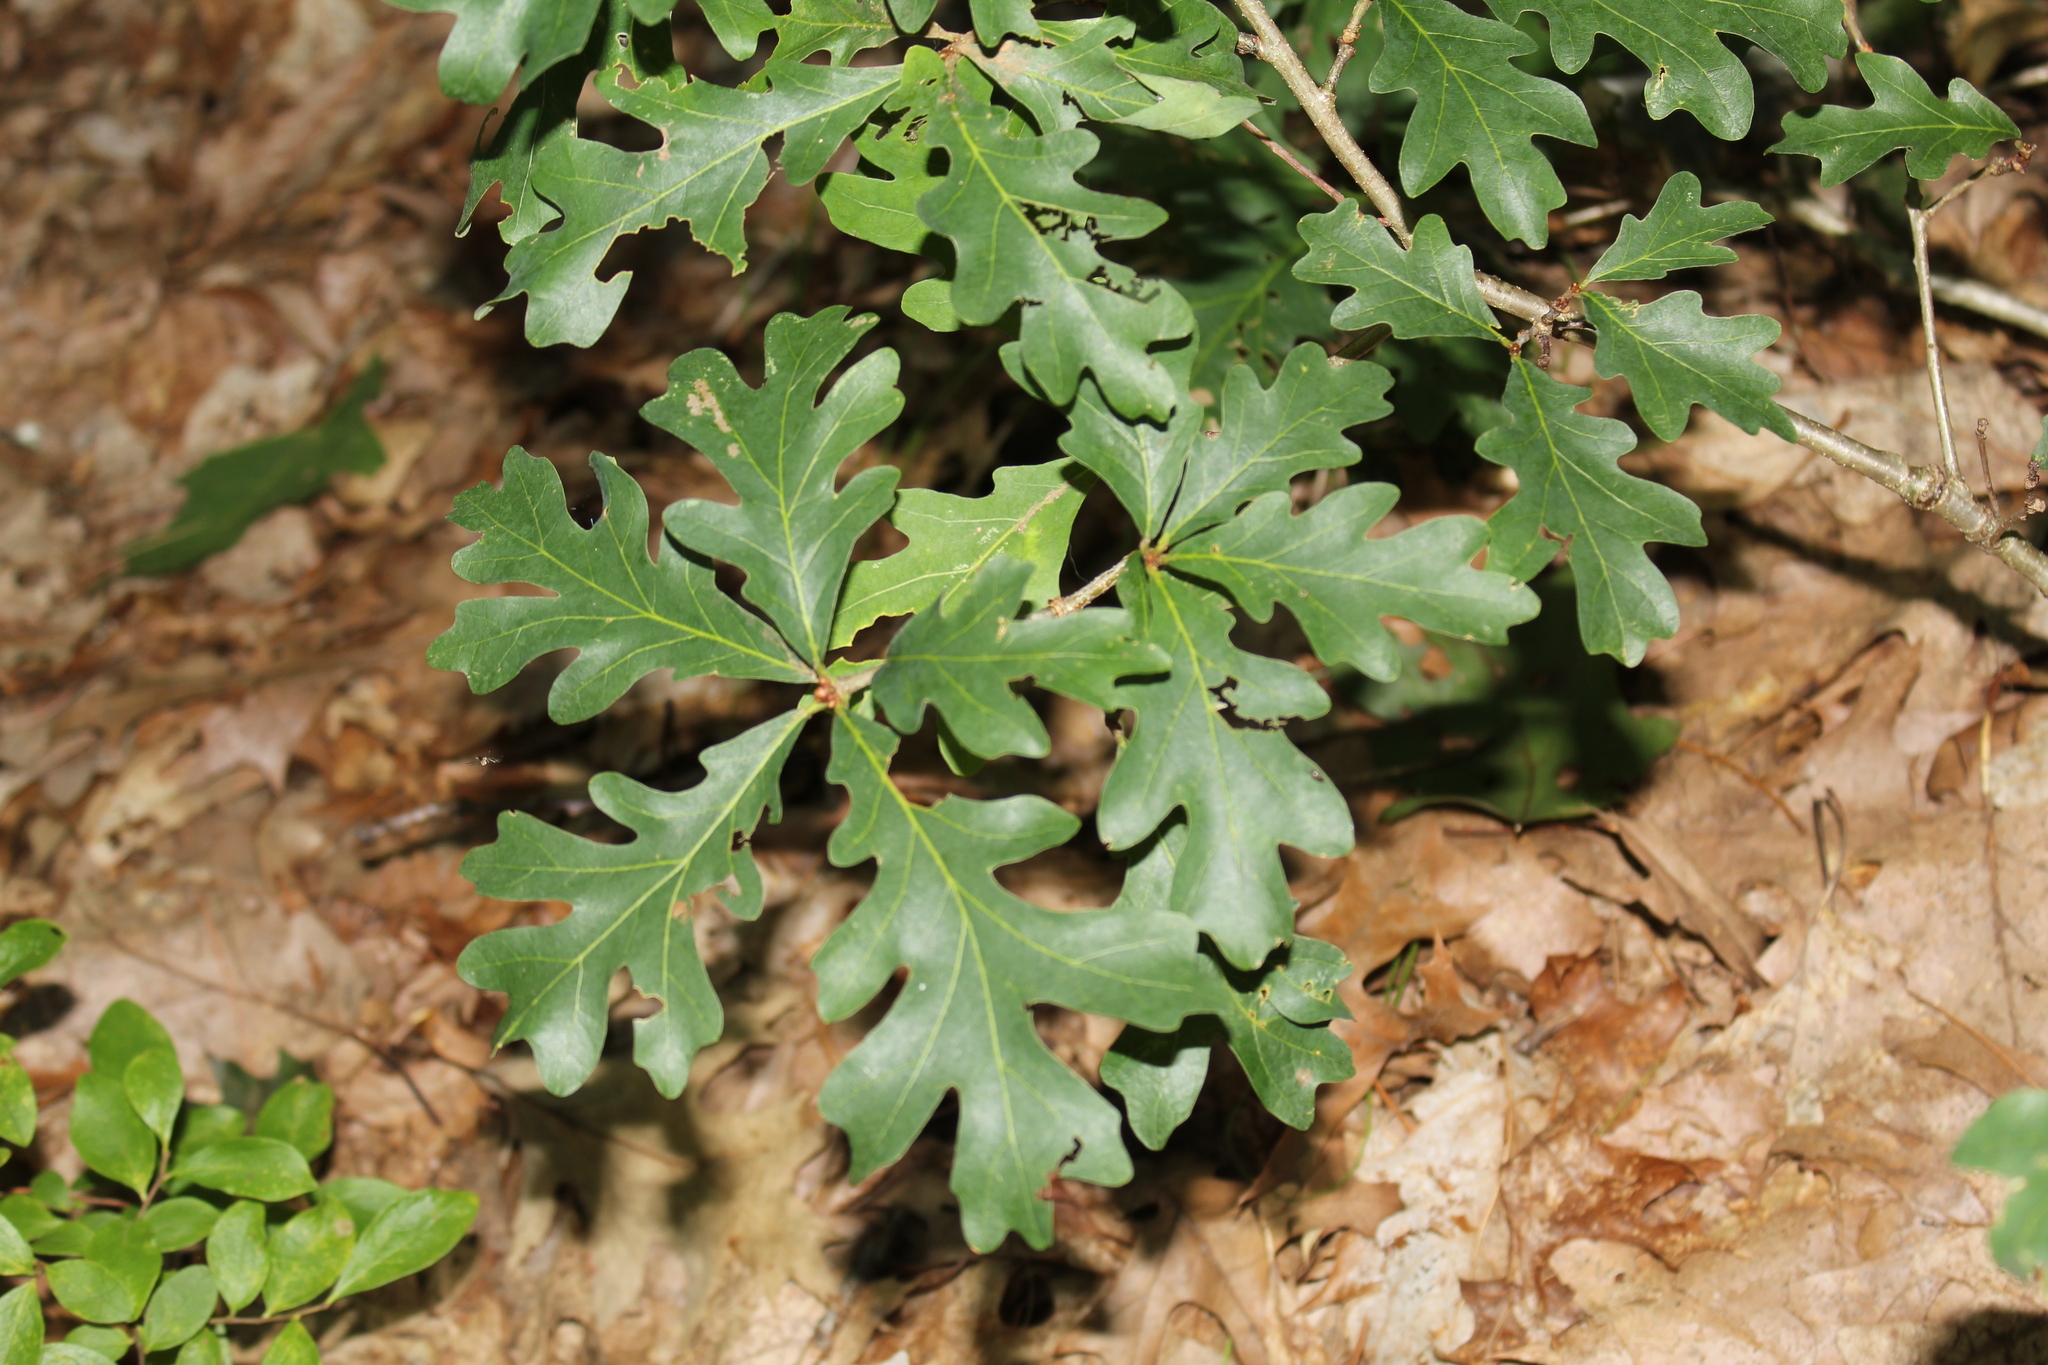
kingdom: Plantae
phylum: Tracheophyta
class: Magnoliopsida
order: Fagales
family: Fagaceae
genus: Quercus
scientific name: Quercus alba
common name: White oak
